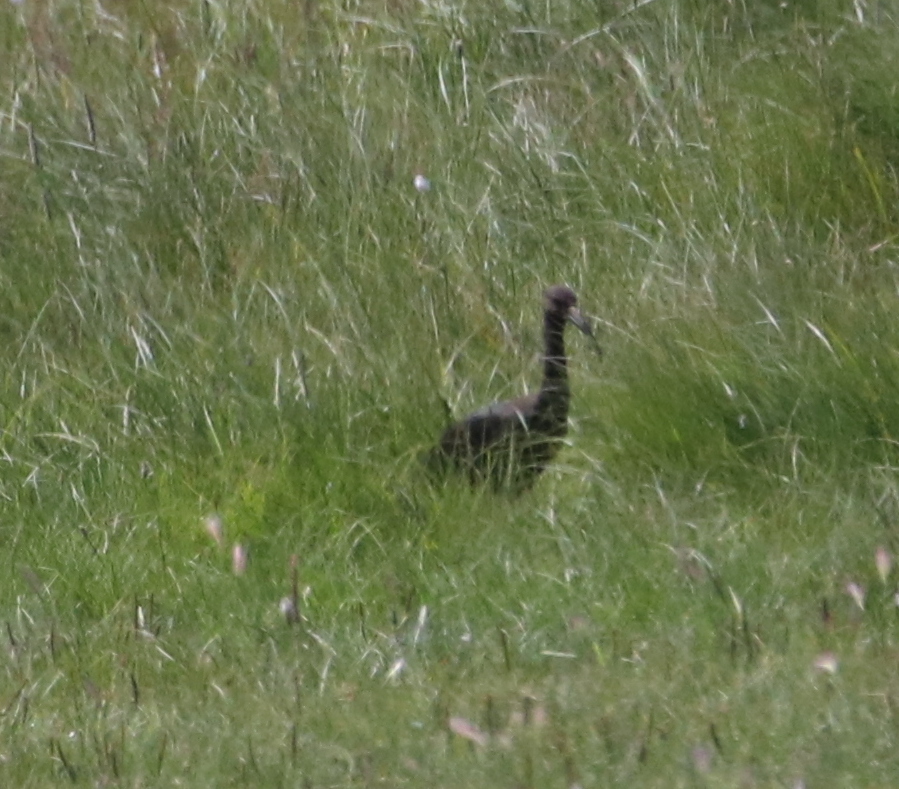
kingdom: Animalia
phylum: Chordata
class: Aves
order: Pelecaniformes
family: Threskiornithidae
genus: Plegadis
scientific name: Plegadis chihi
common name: White-faced ibis
